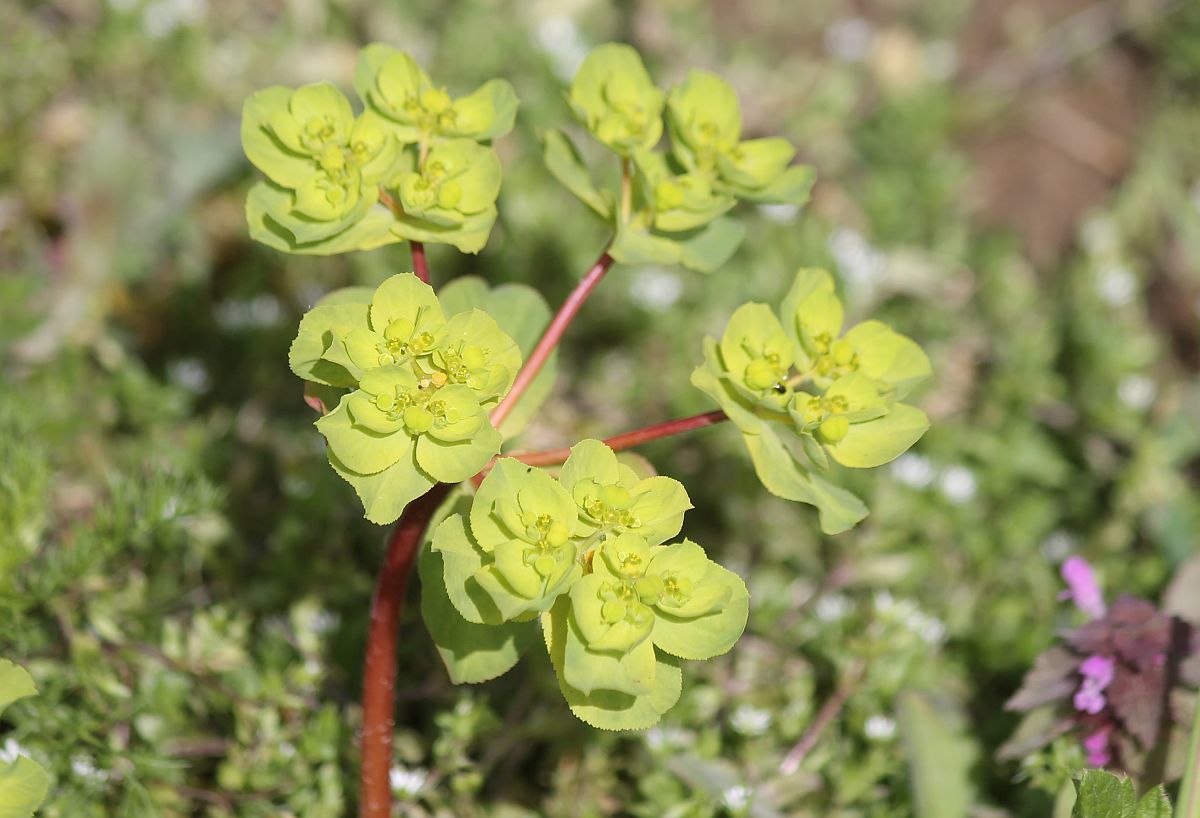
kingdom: Plantae
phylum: Tracheophyta
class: Magnoliopsida
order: Malpighiales
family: Euphorbiaceae
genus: Euphorbia
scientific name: Euphorbia helioscopia
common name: Sun spurge
